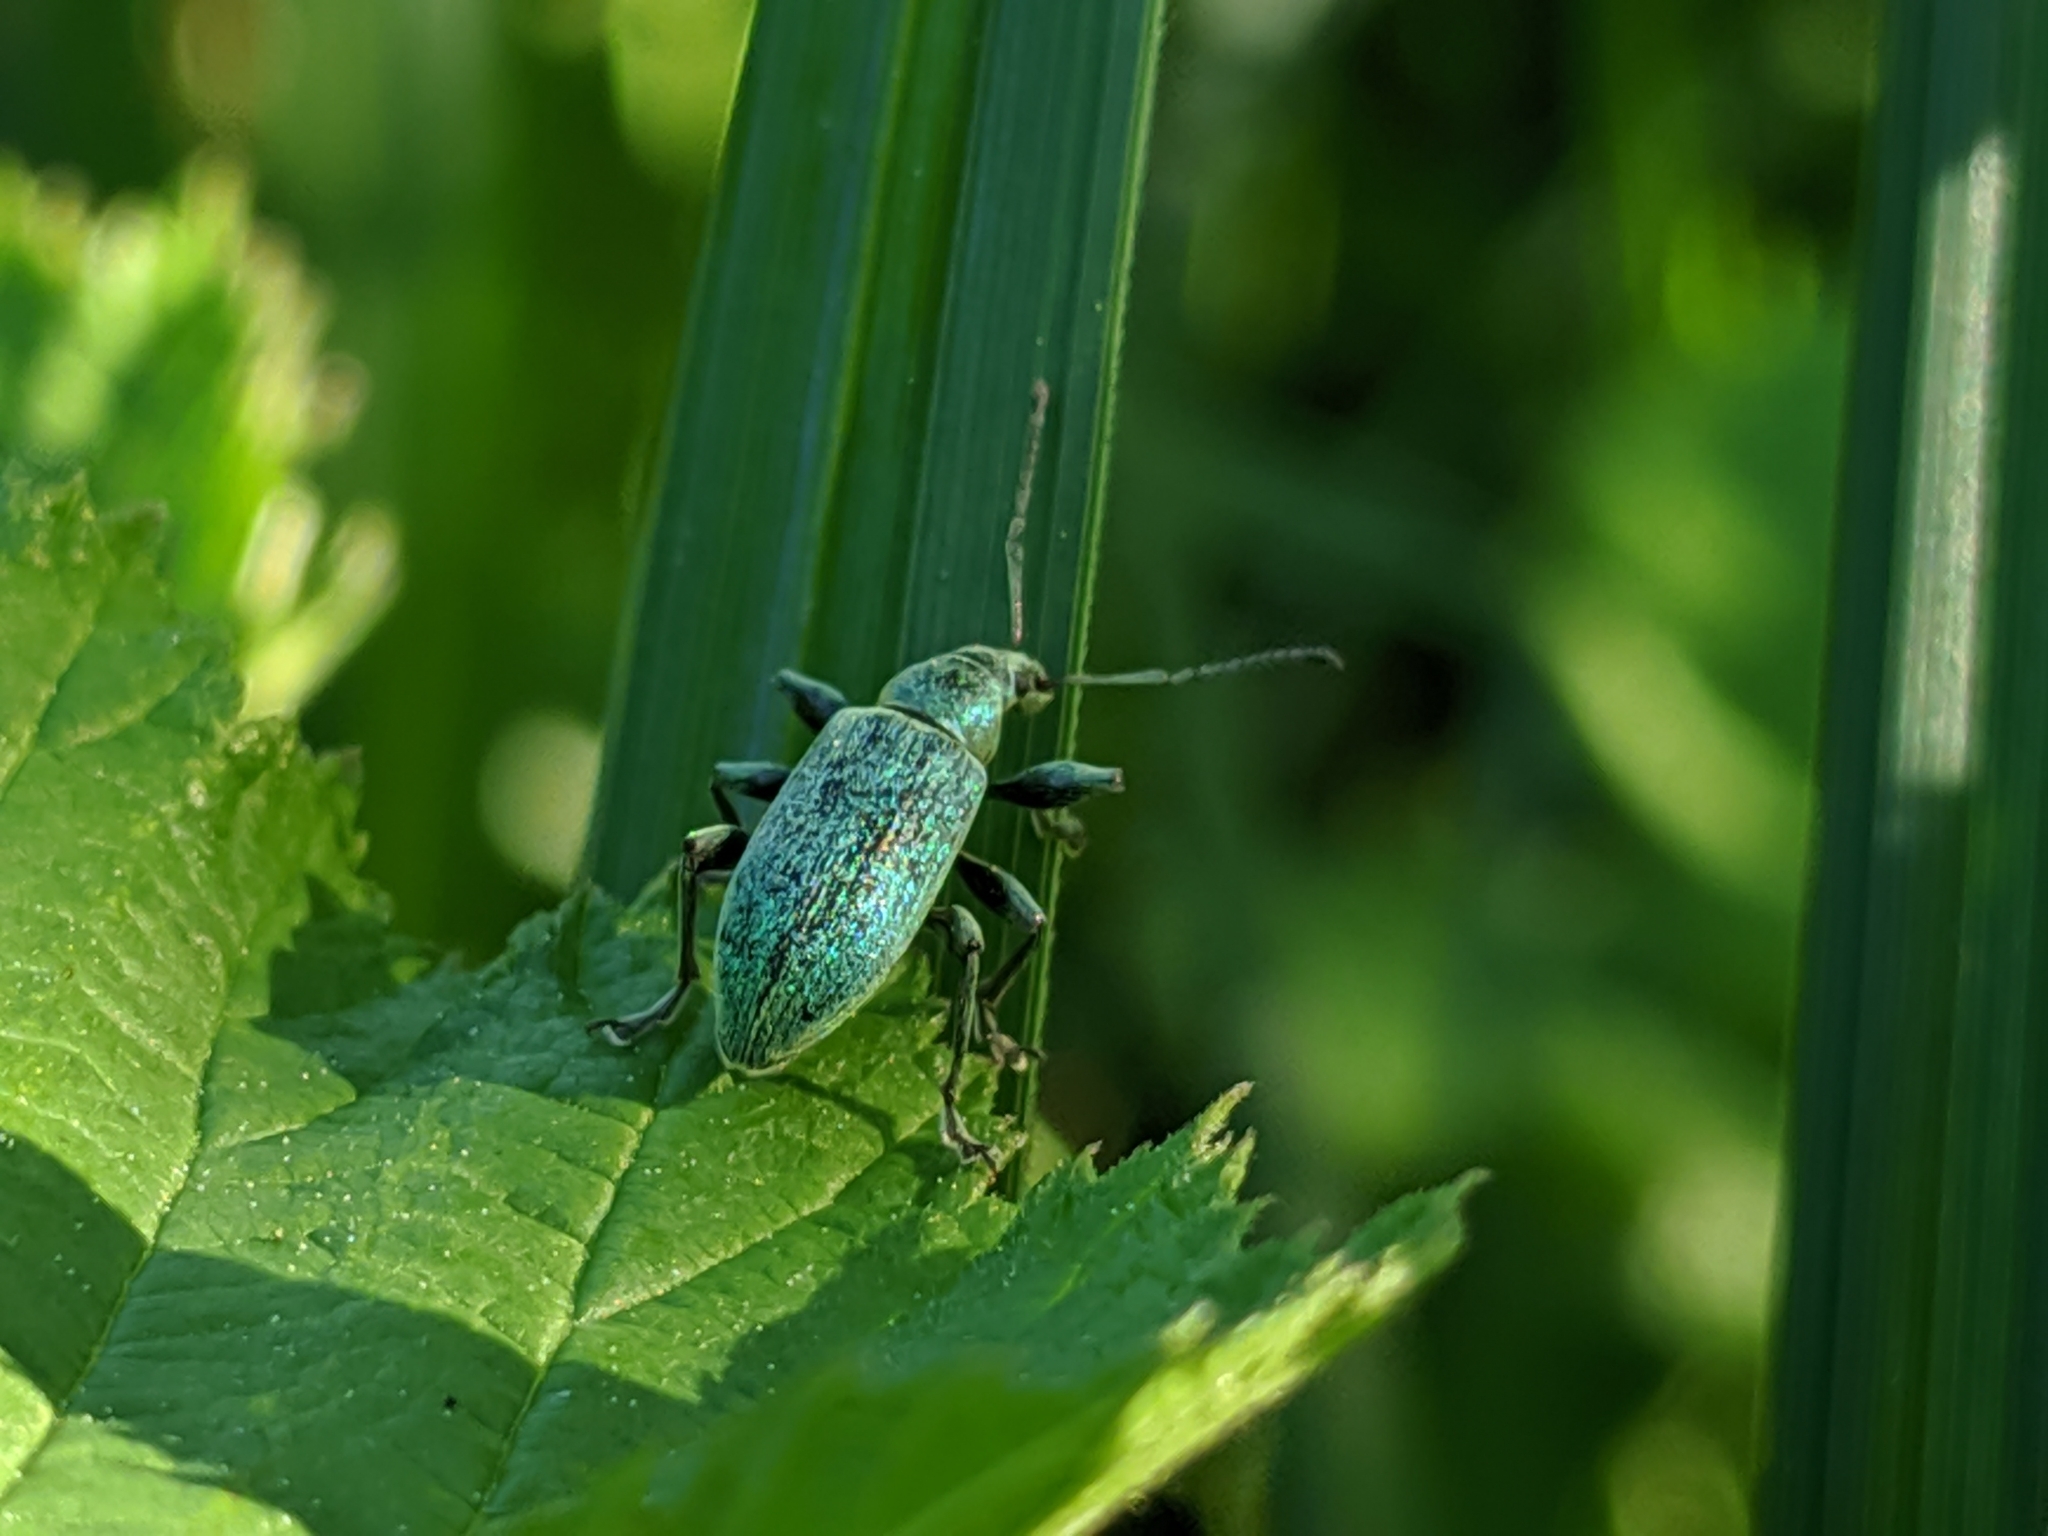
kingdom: Animalia
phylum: Arthropoda
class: Insecta
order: Coleoptera
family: Curculionidae
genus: Phyllobius
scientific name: Phyllobius pomaceus
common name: Green nettle weevil
